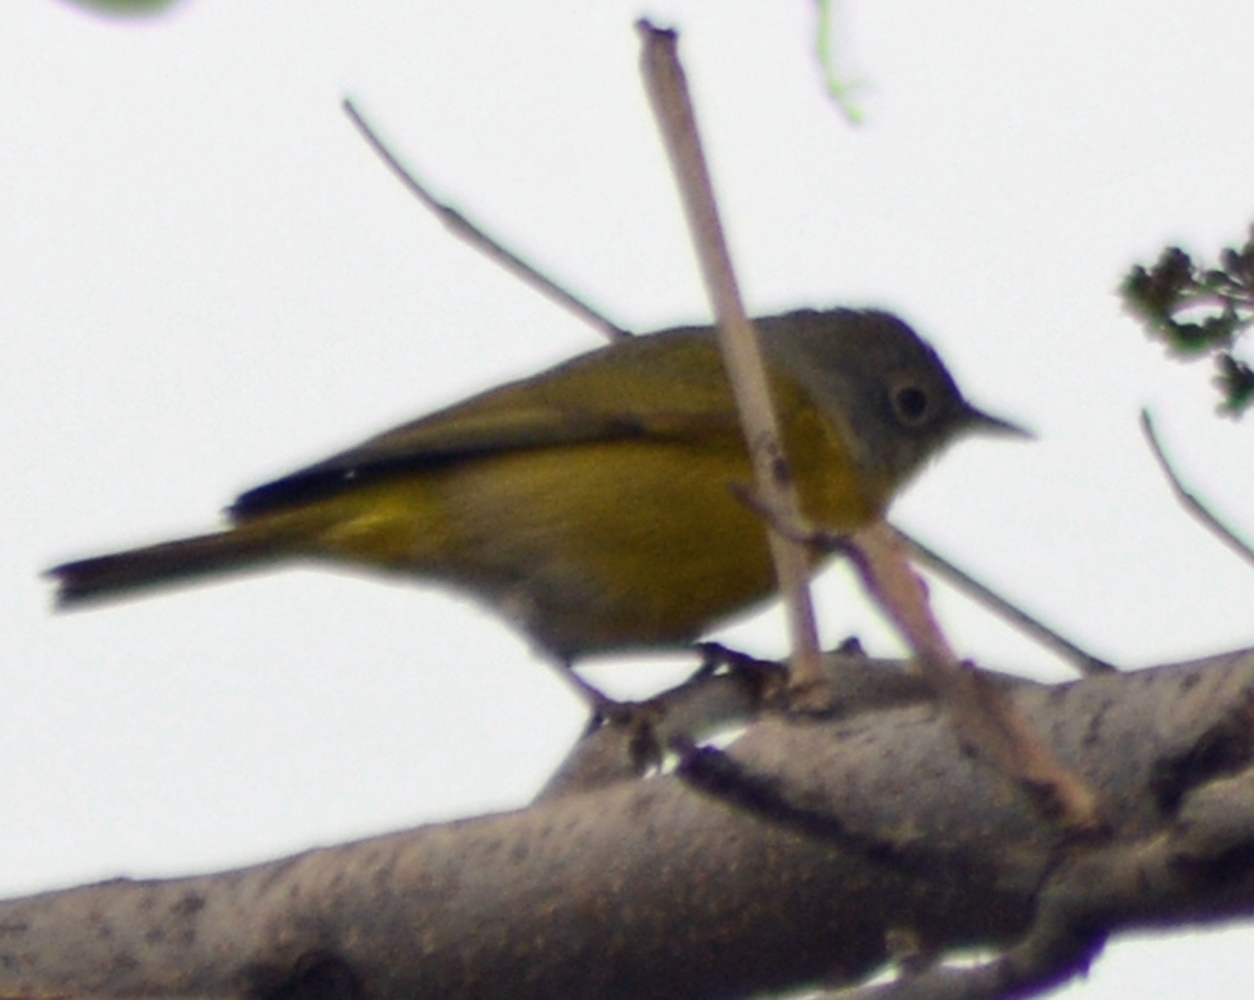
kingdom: Animalia
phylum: Chordata
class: Aves
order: Passeriformes
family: Parulidae
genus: Leiothlypis
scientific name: Leiothlypis ruficapilla
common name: Nashville warbler
